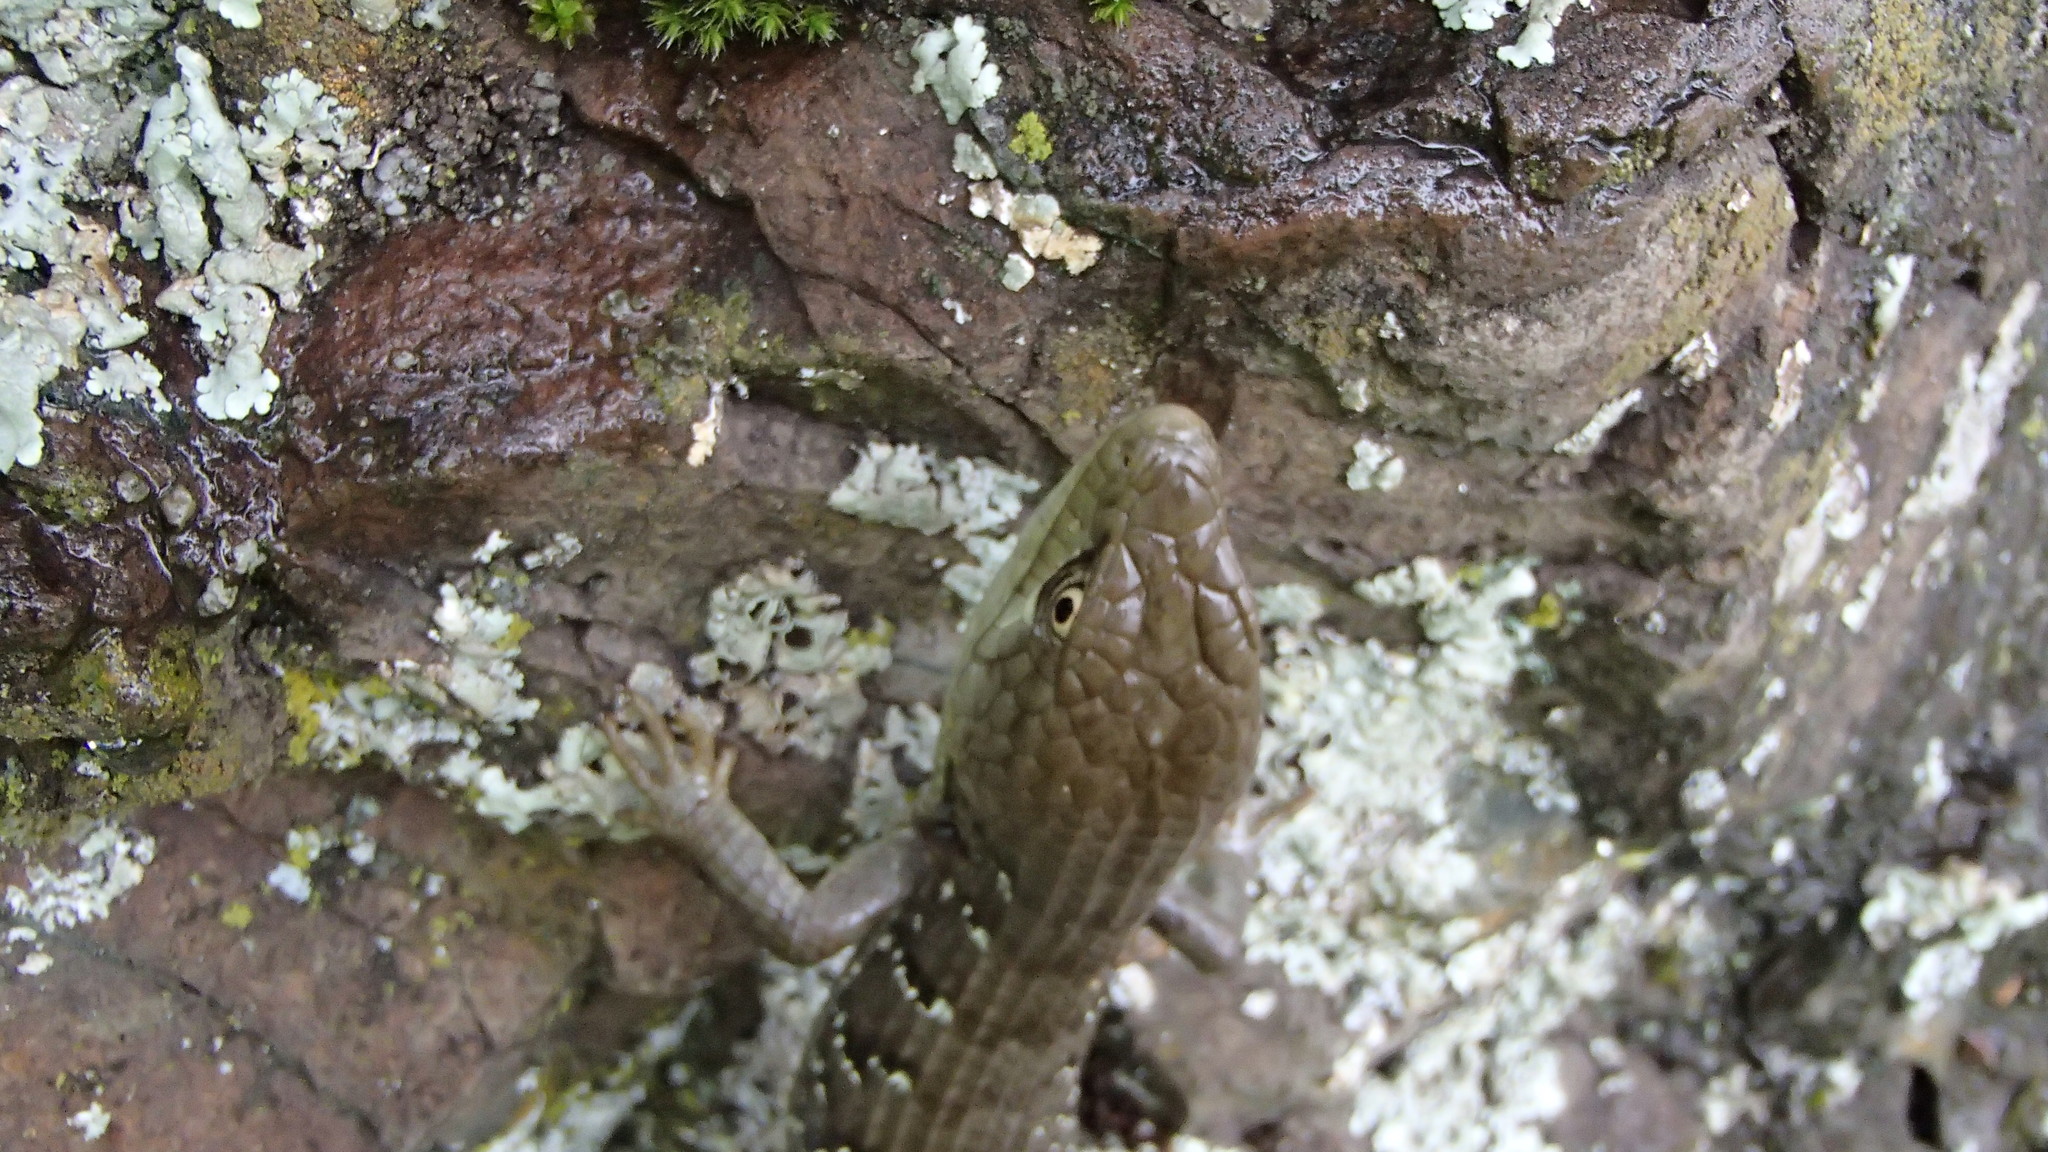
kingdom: Animalia
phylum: Chordata
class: Squamata
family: Anguidae
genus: Elgaria
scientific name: Elgaria multicarinata
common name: Southern alligator lizard
